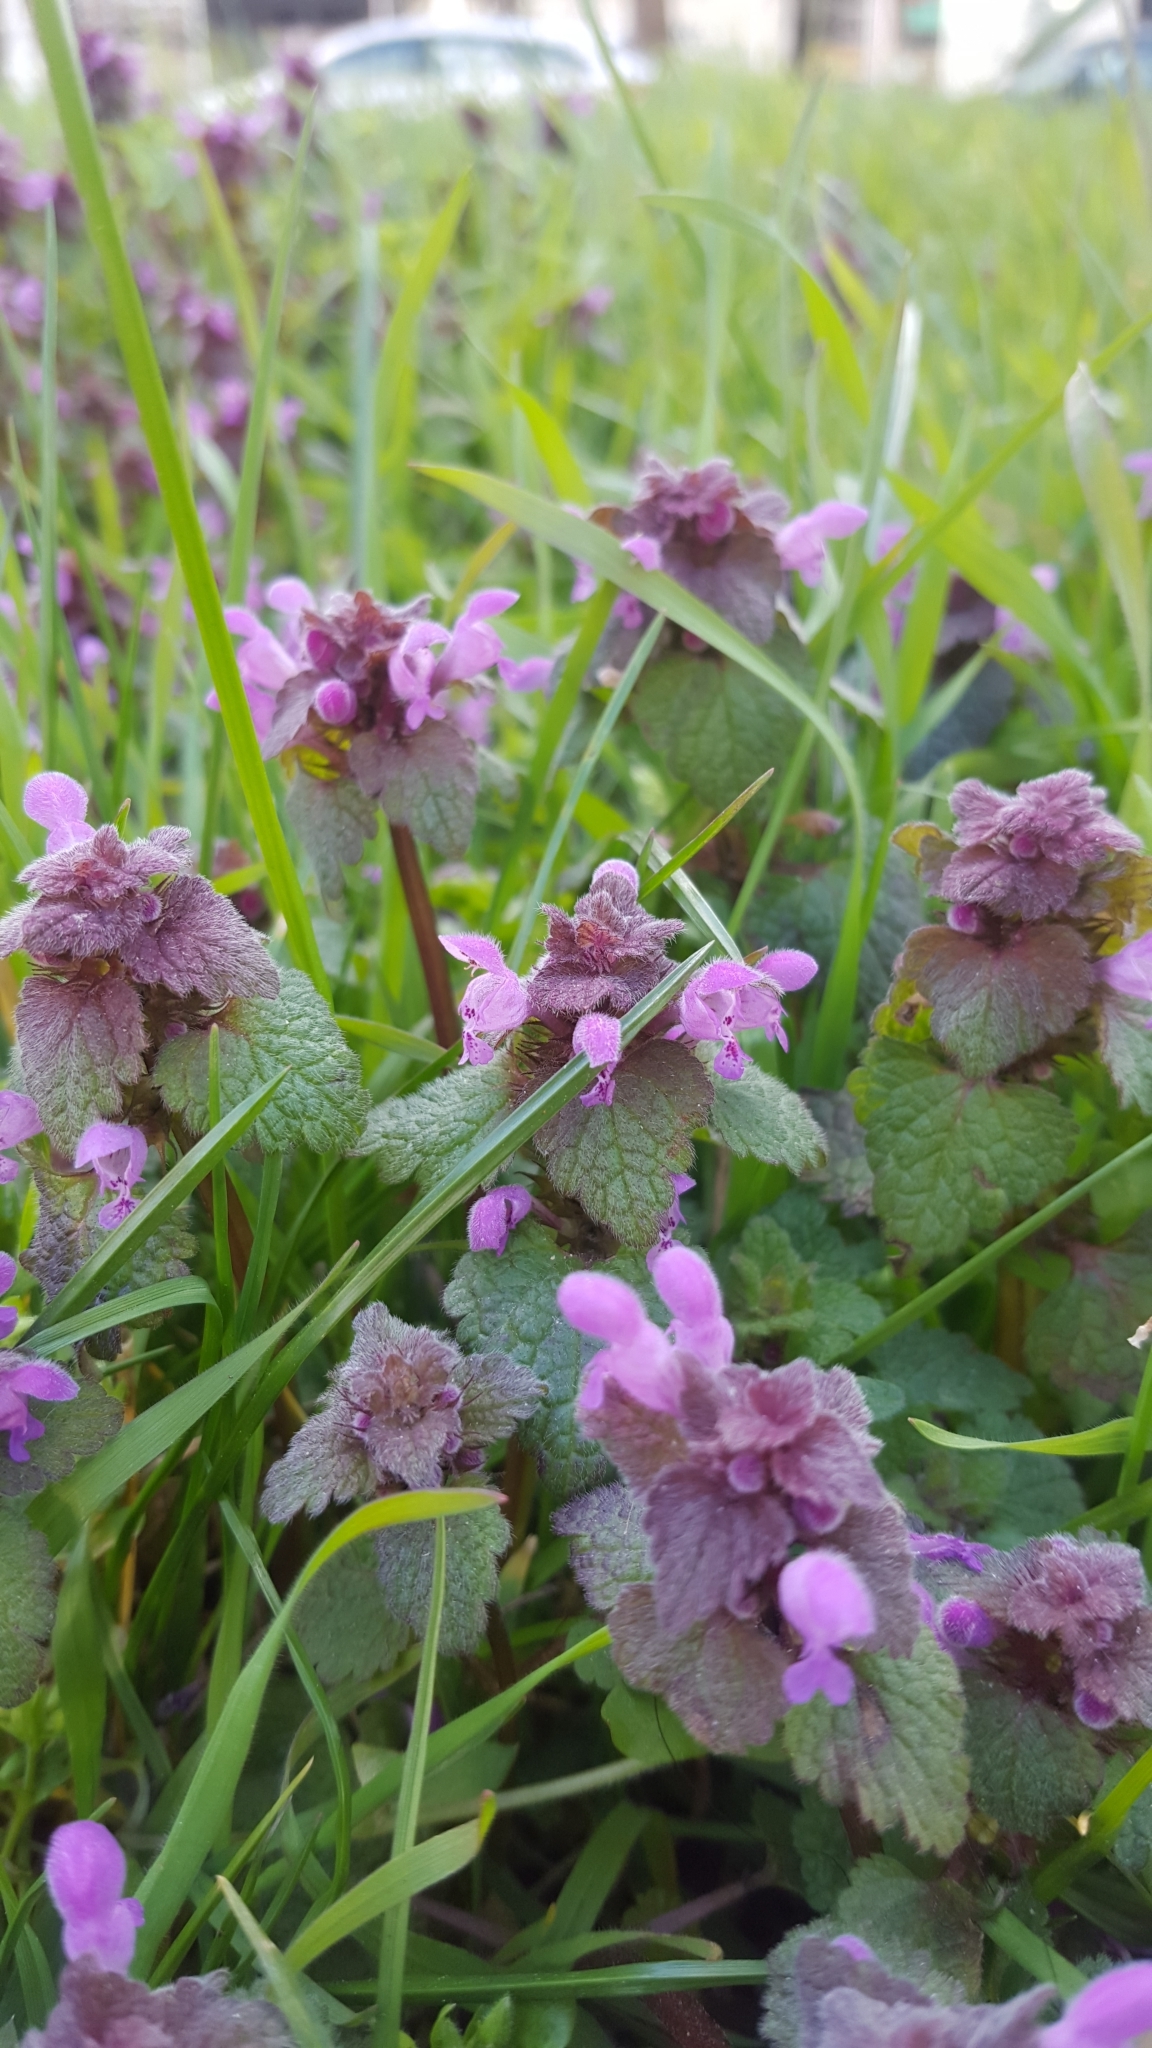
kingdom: Plantae
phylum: Tracheophyta
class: Magnoliopsida
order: Lamiales
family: Lamiaceae
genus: Lamium
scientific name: Lamium purpureum
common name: Red dead-nettle
